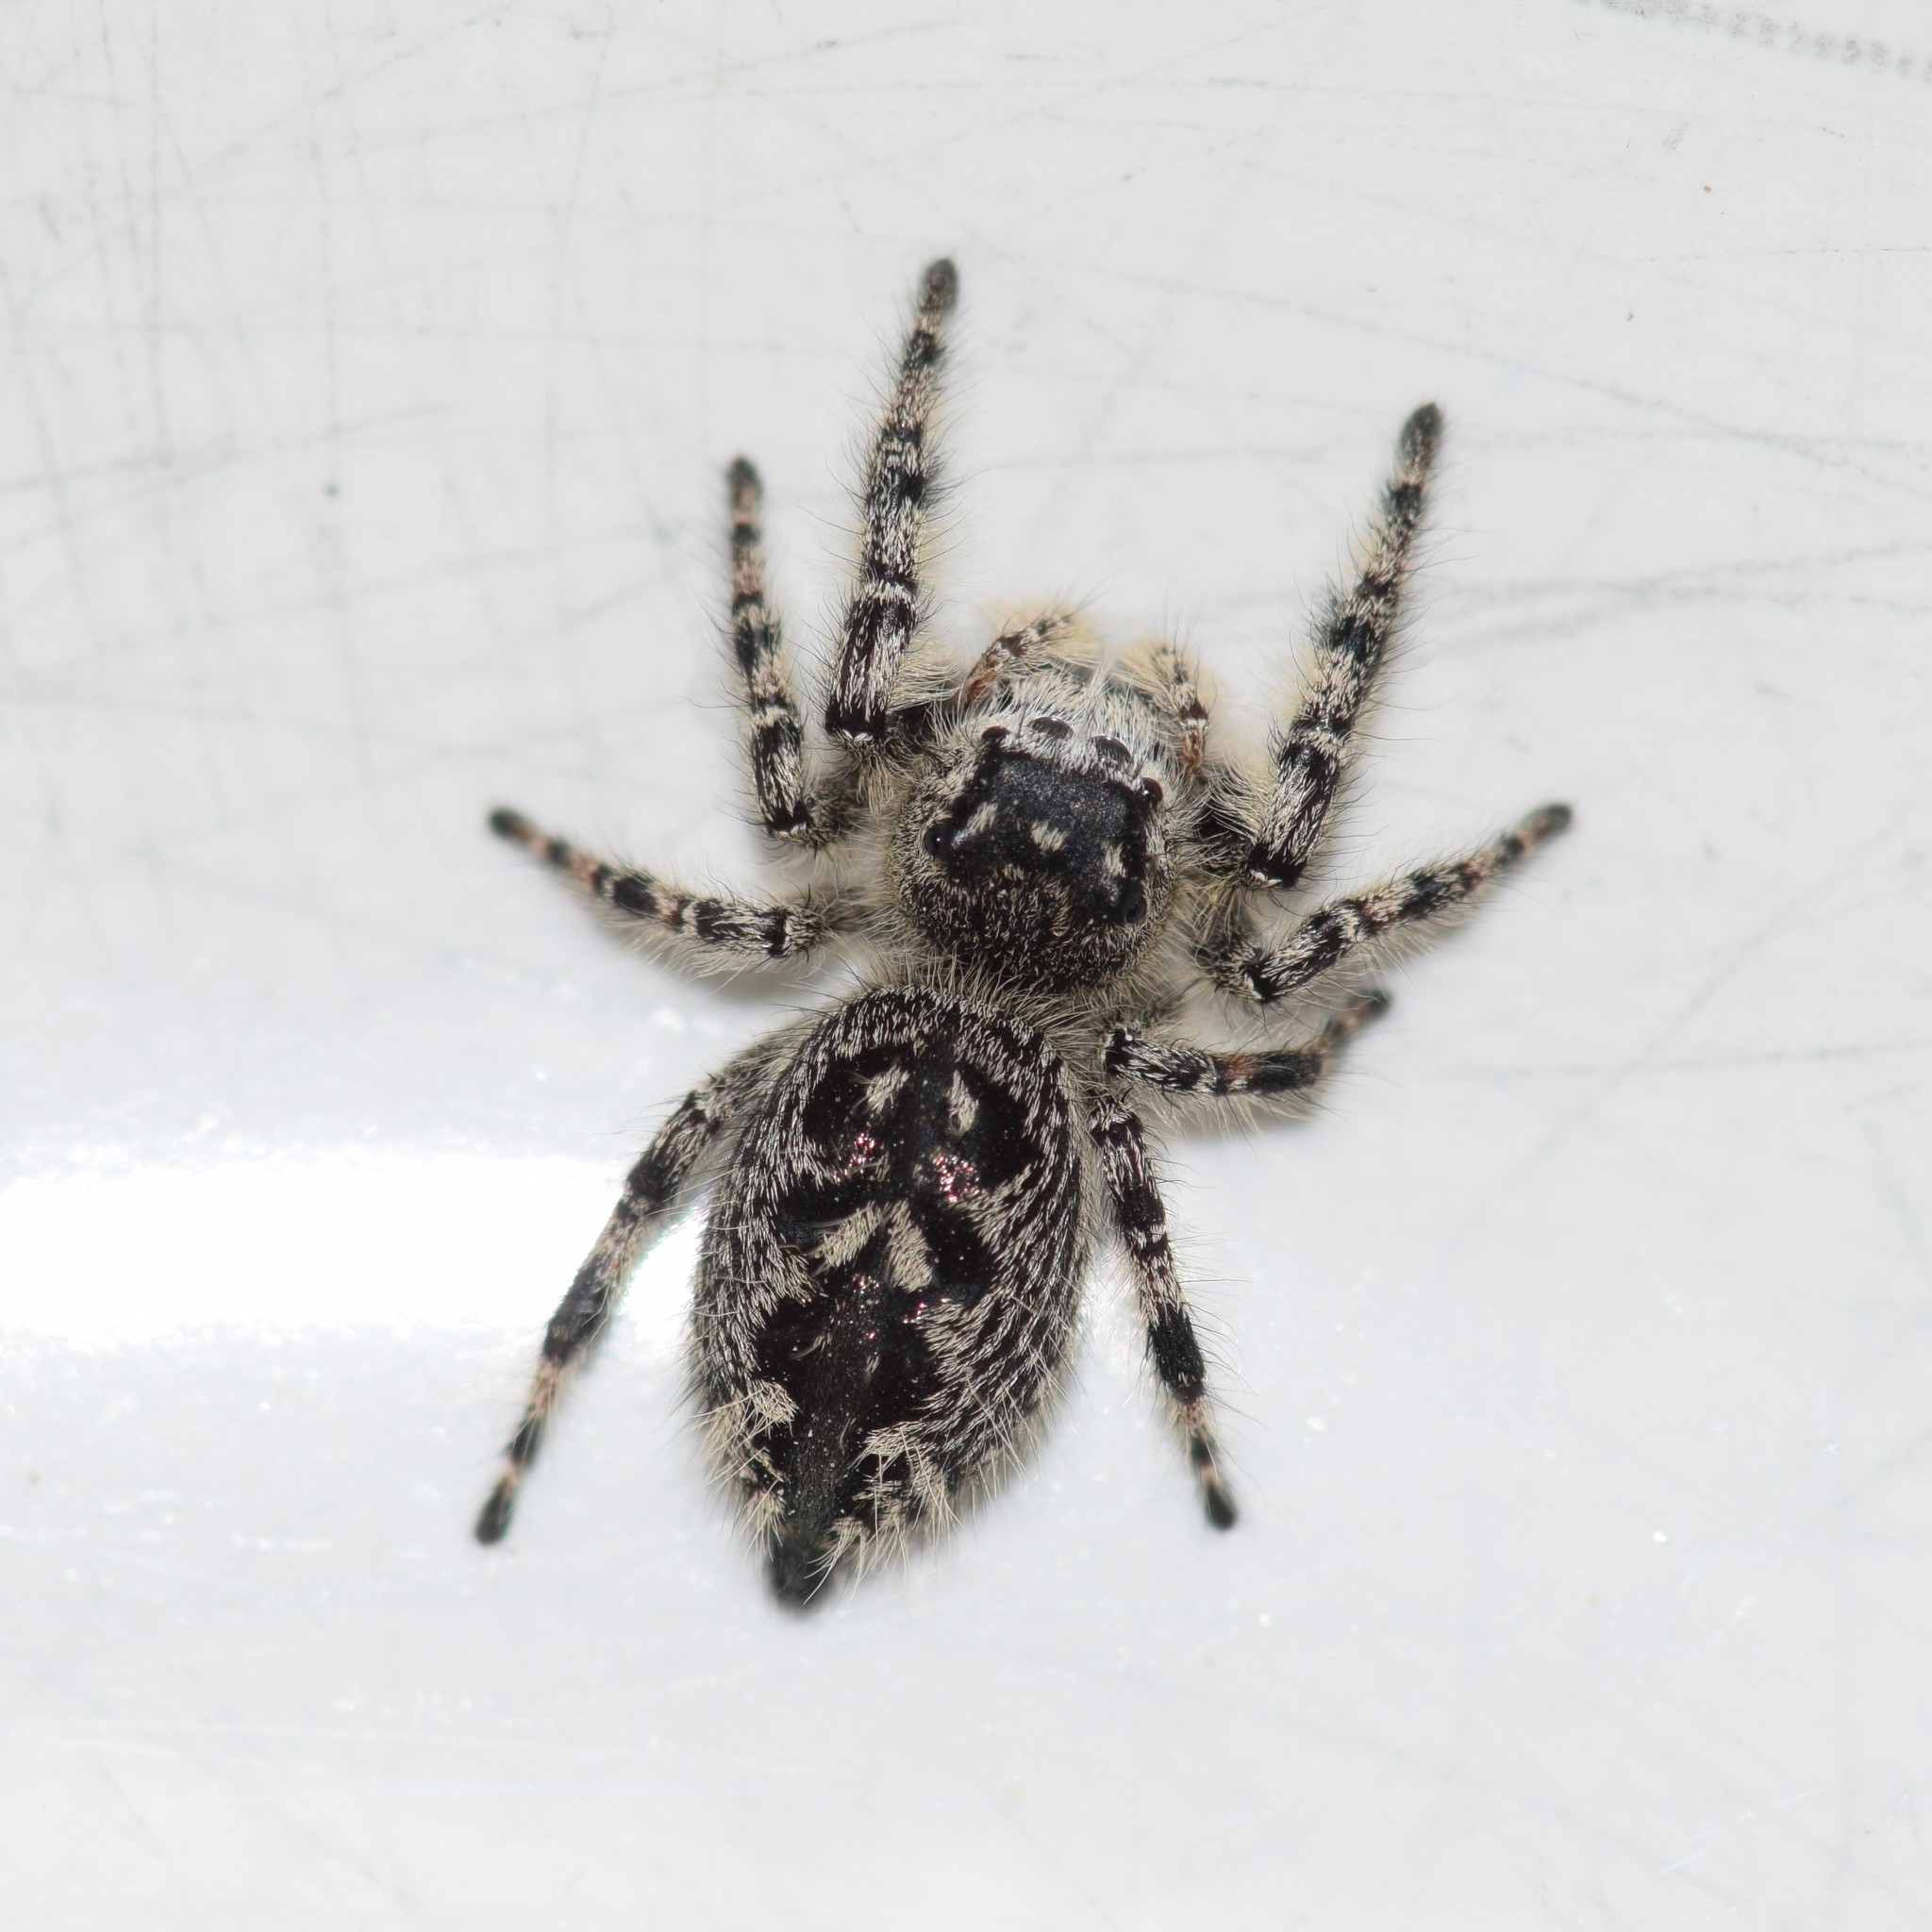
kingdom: Animalia
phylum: Arthropoda
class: Arachnida
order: Araneae
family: Salticidae
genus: Phidippus
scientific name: Phidippus otiosus
